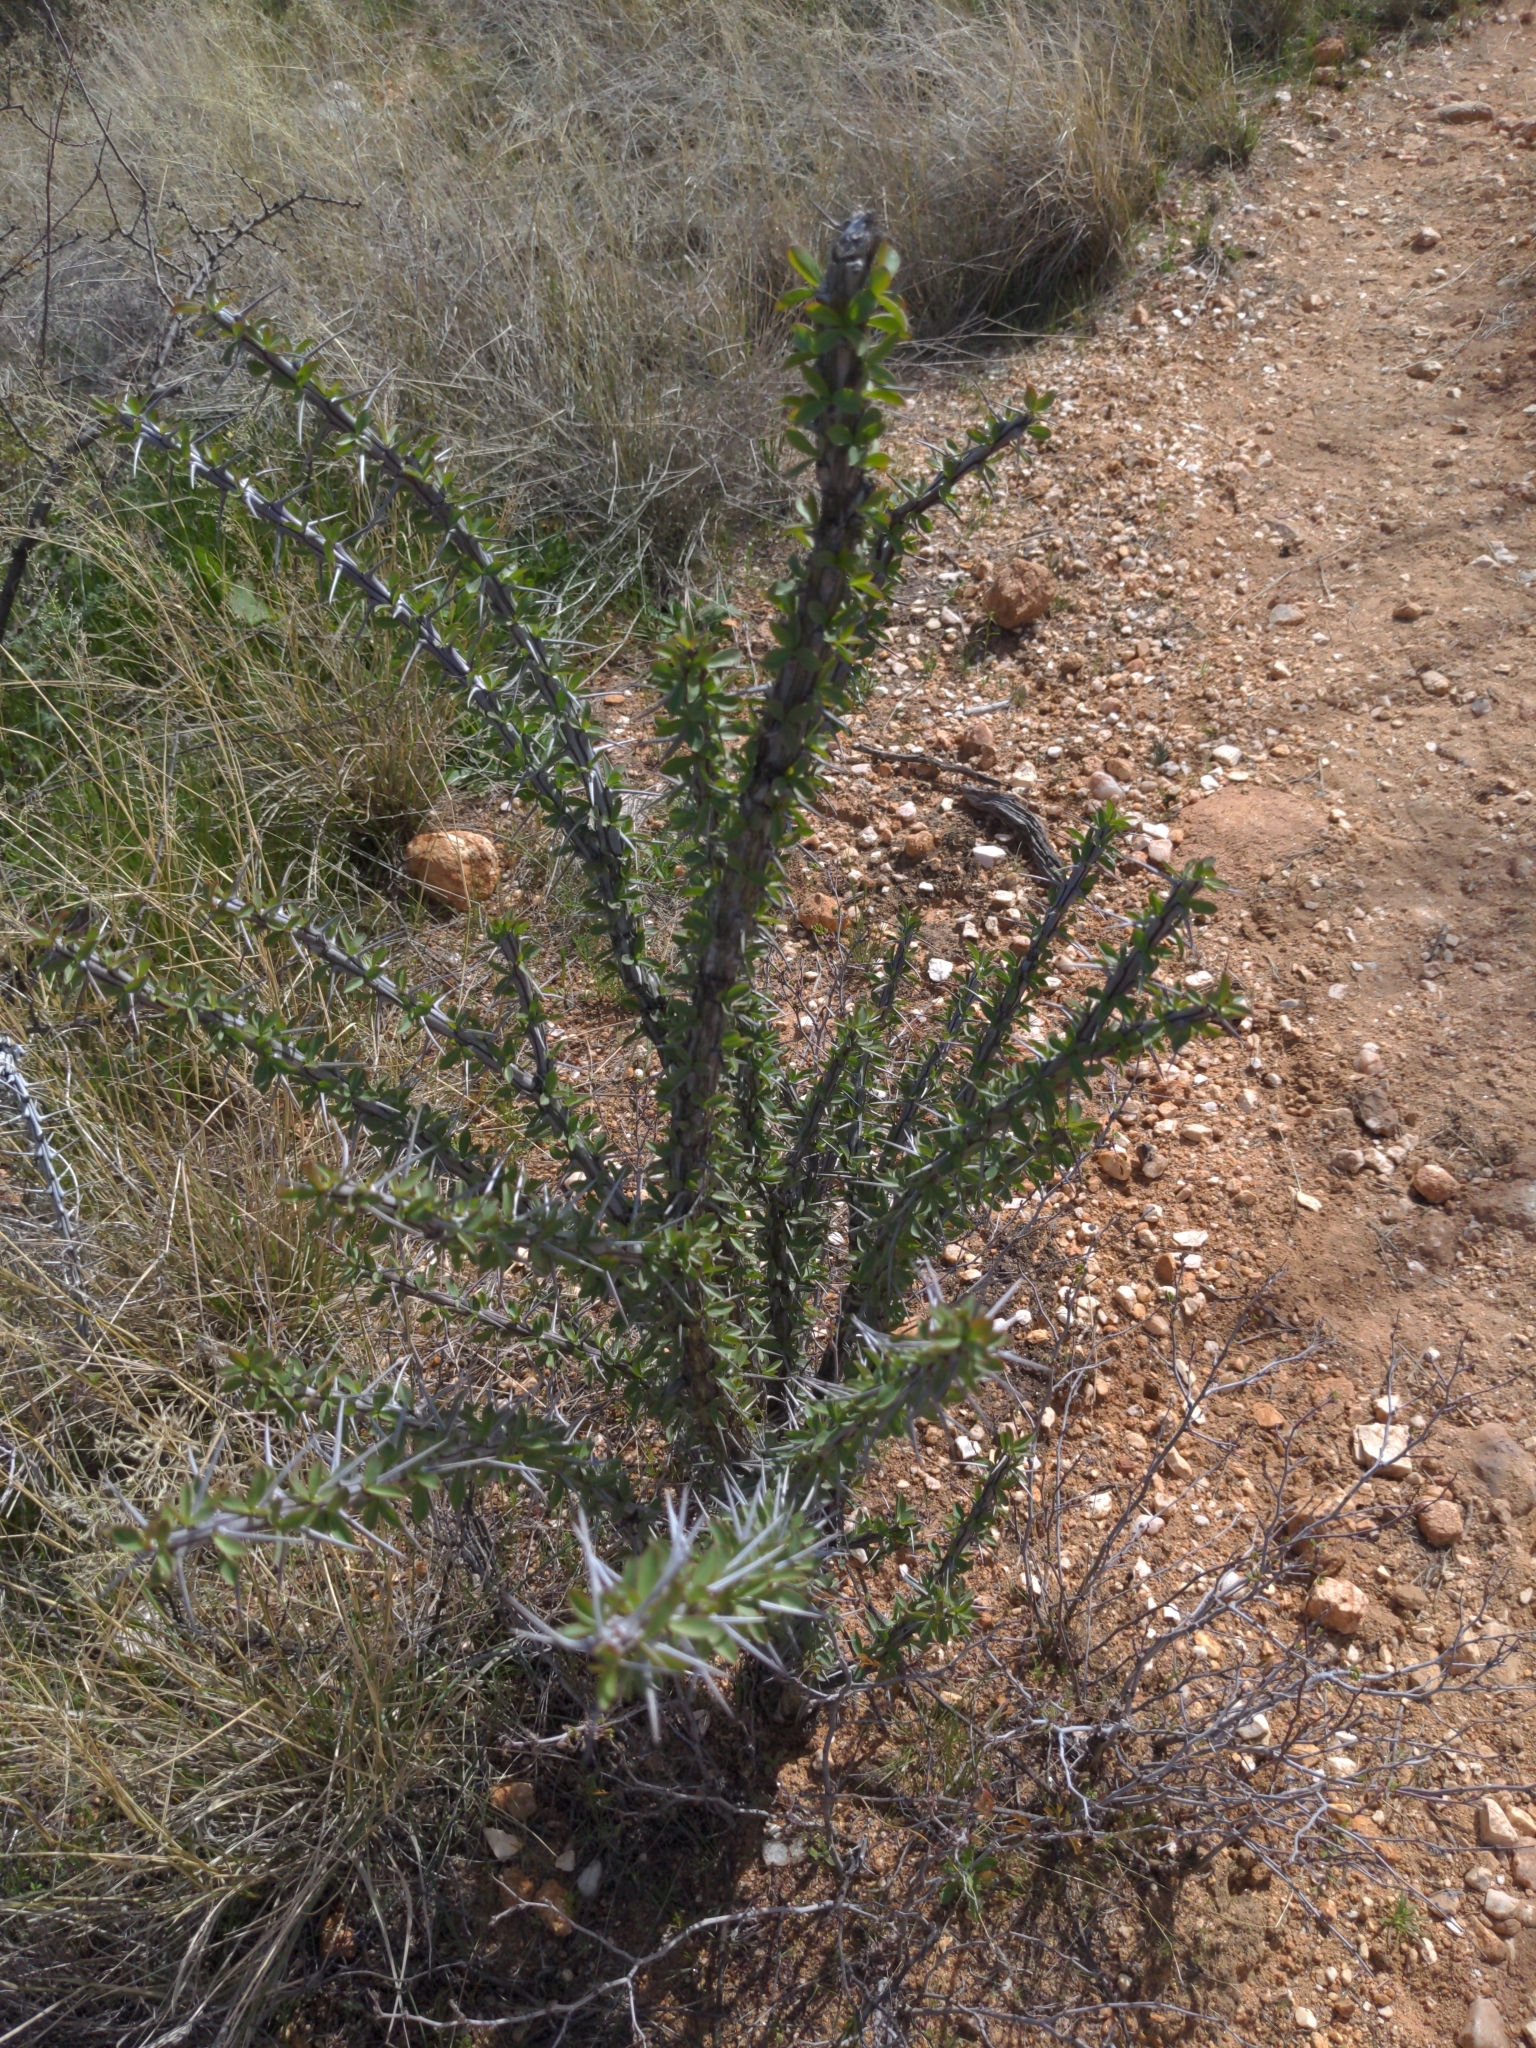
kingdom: Plantae
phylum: Tracheophyta
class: Magnoliopsida
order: Ericales
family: Fouquieriaceae
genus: Fouquieria
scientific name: Fouquieria splendens
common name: Vine-cactus
